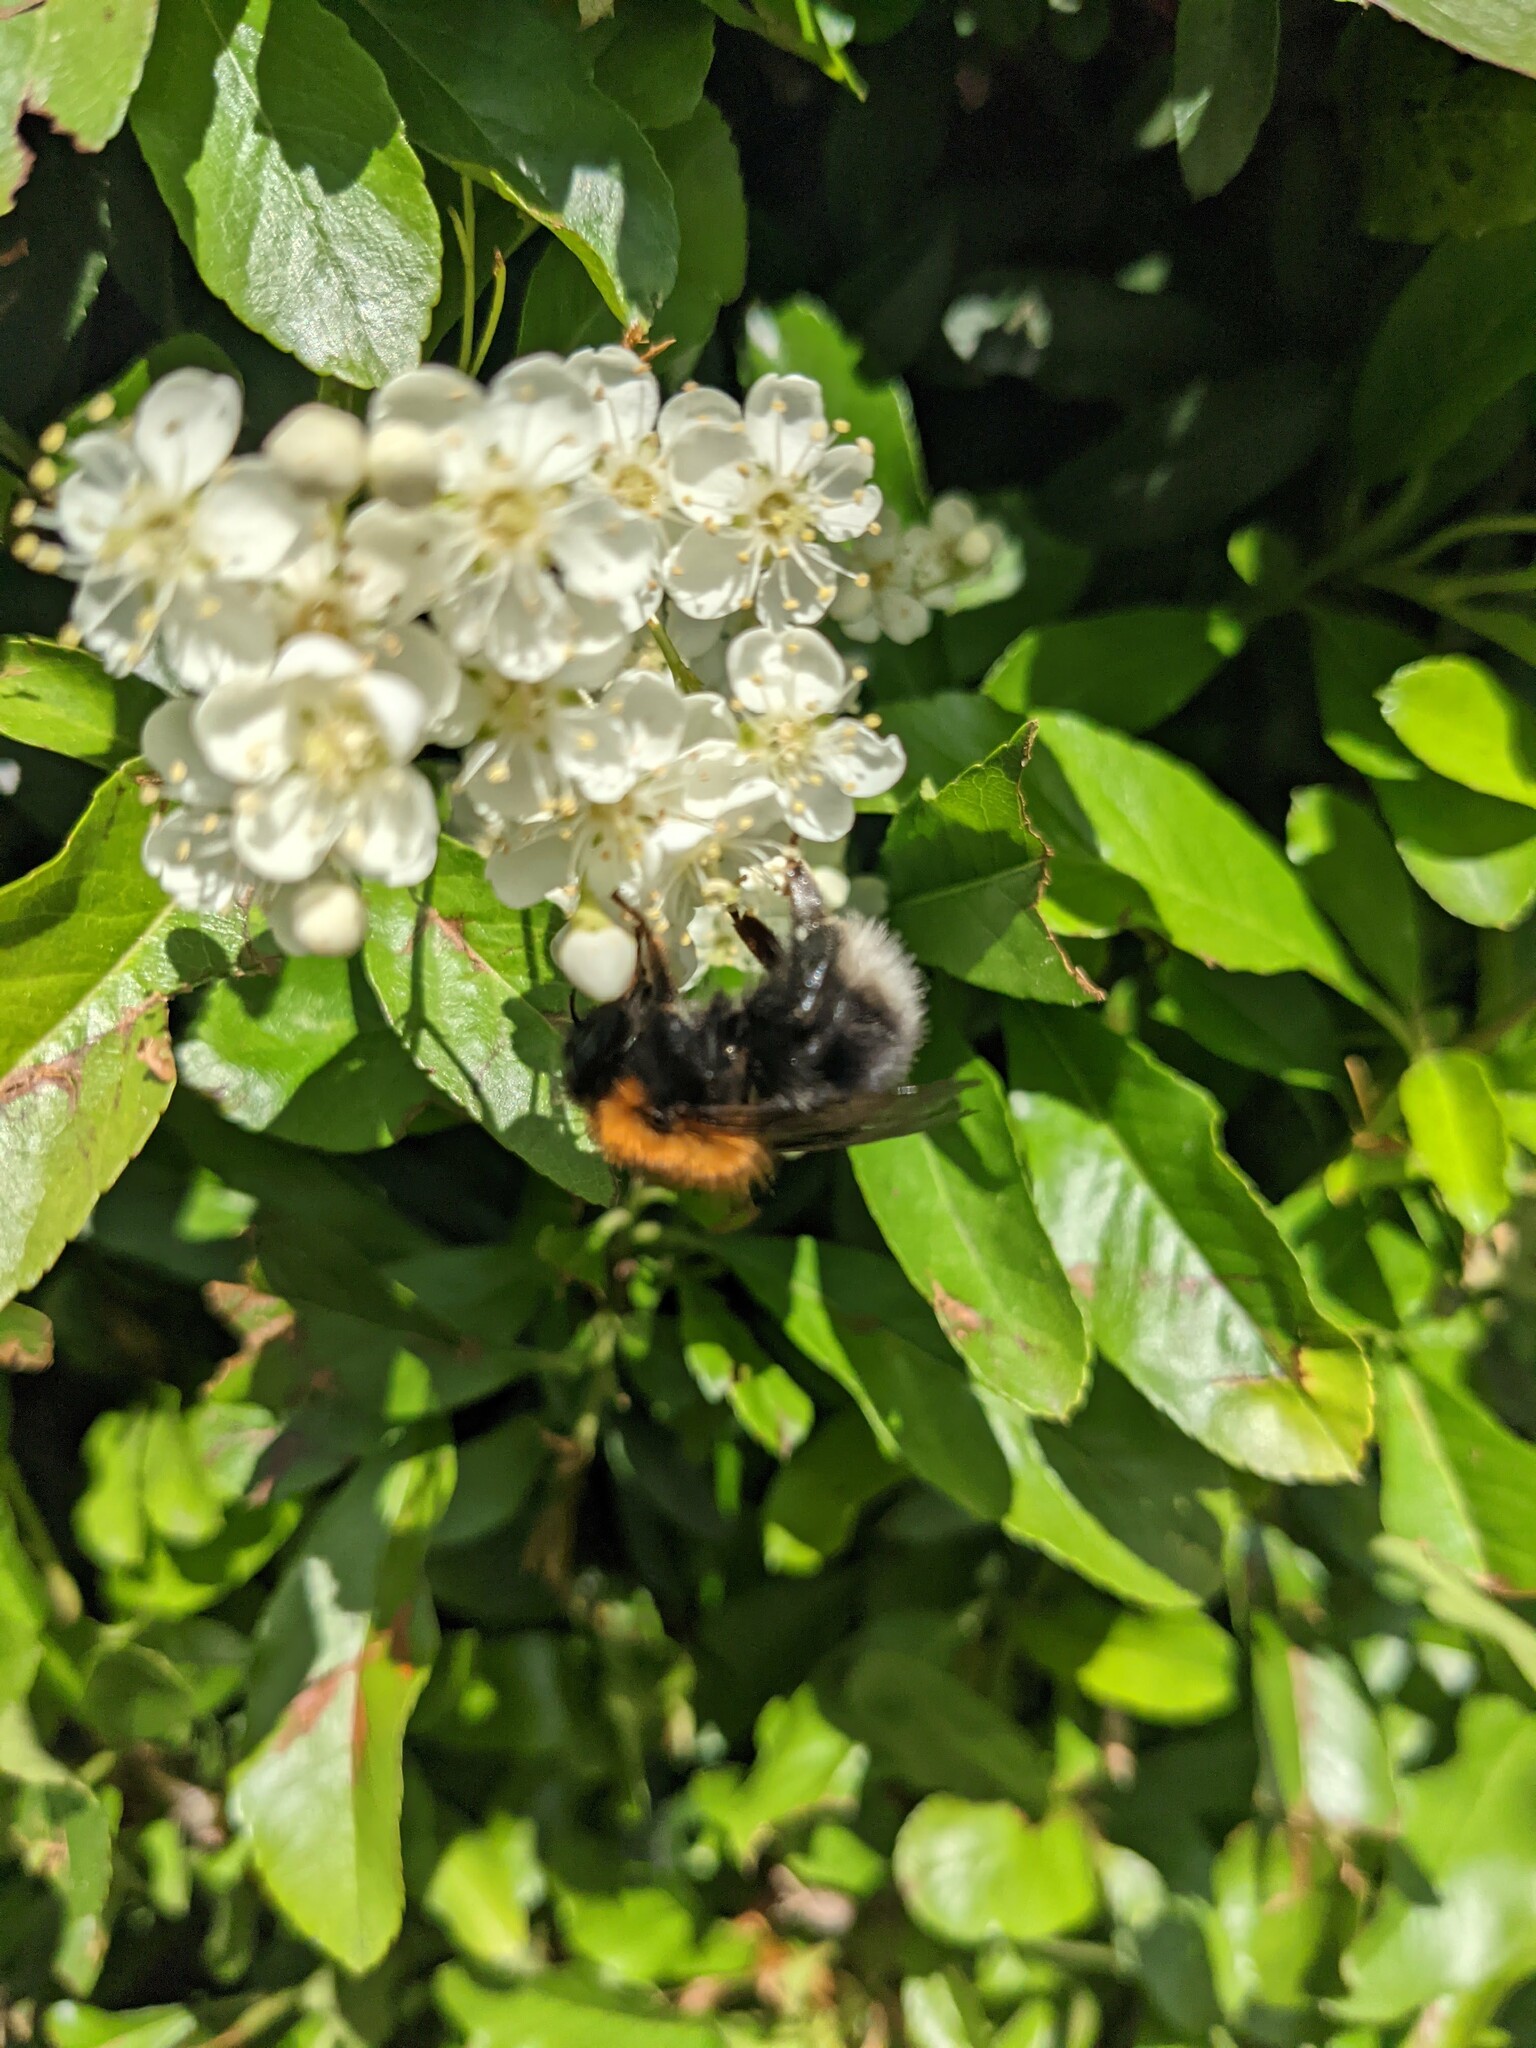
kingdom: Animalia
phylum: Arthropoda
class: Insecta
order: Hymenoptera
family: Apidae
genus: Bombus
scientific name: Bombus hypnorum
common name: New garden bumblebee
